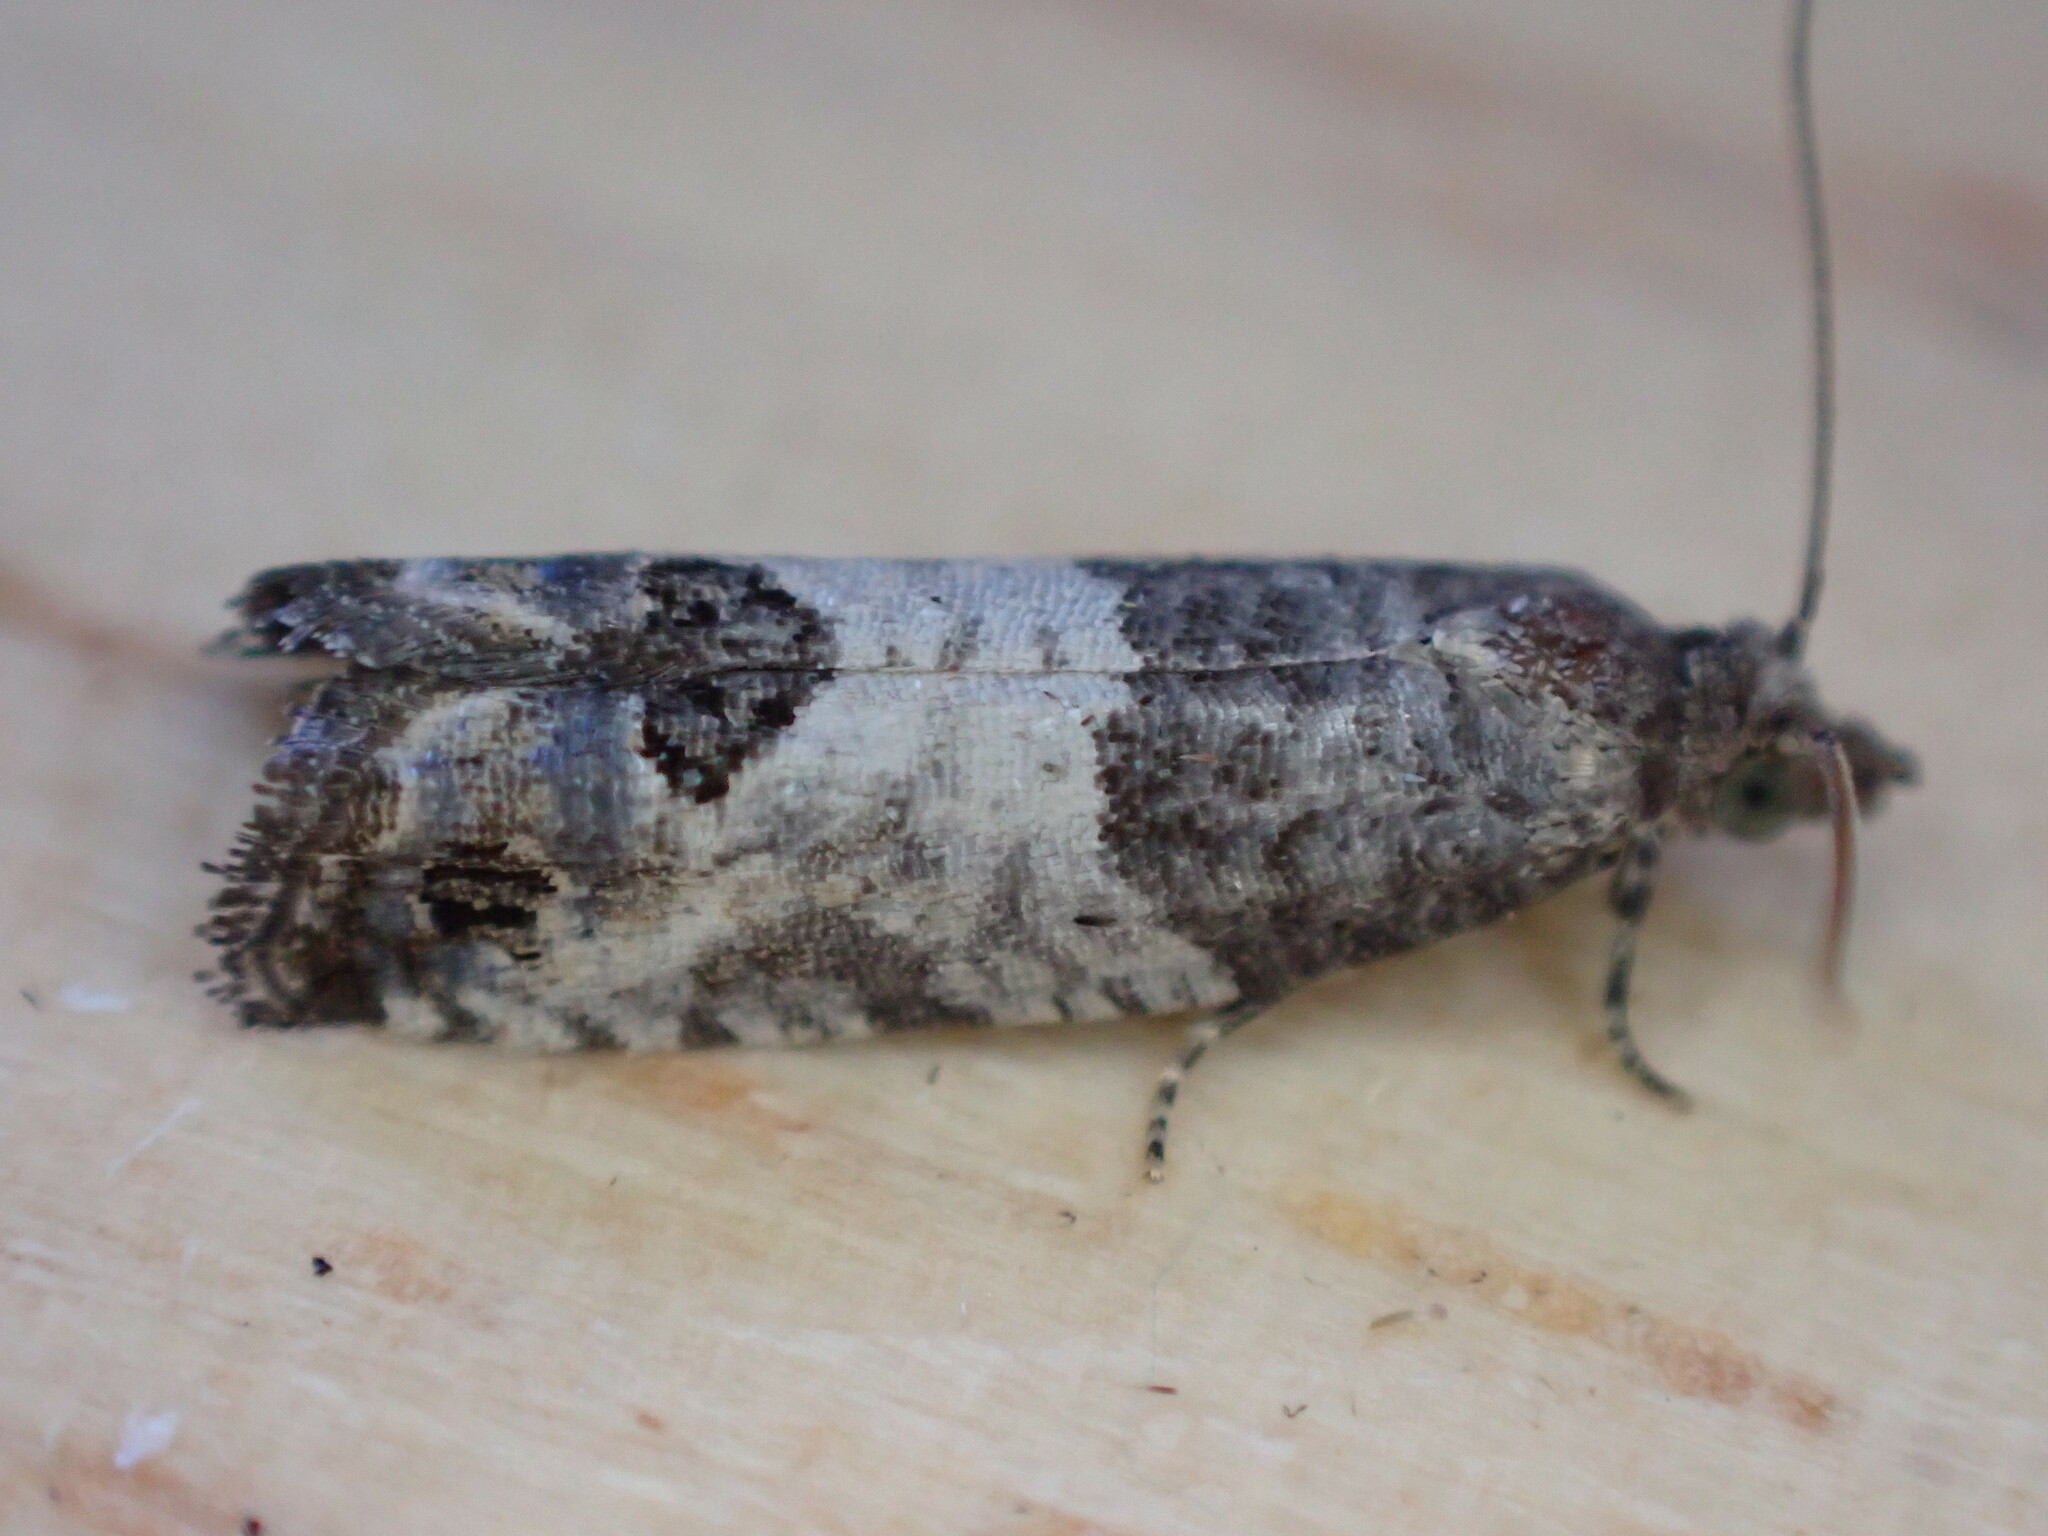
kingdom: Animalia
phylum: Arthropoda
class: Insecta
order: Lepidoptera
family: Tortricidae
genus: Spilonota
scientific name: Spilonota ocellana
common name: Bud moth
